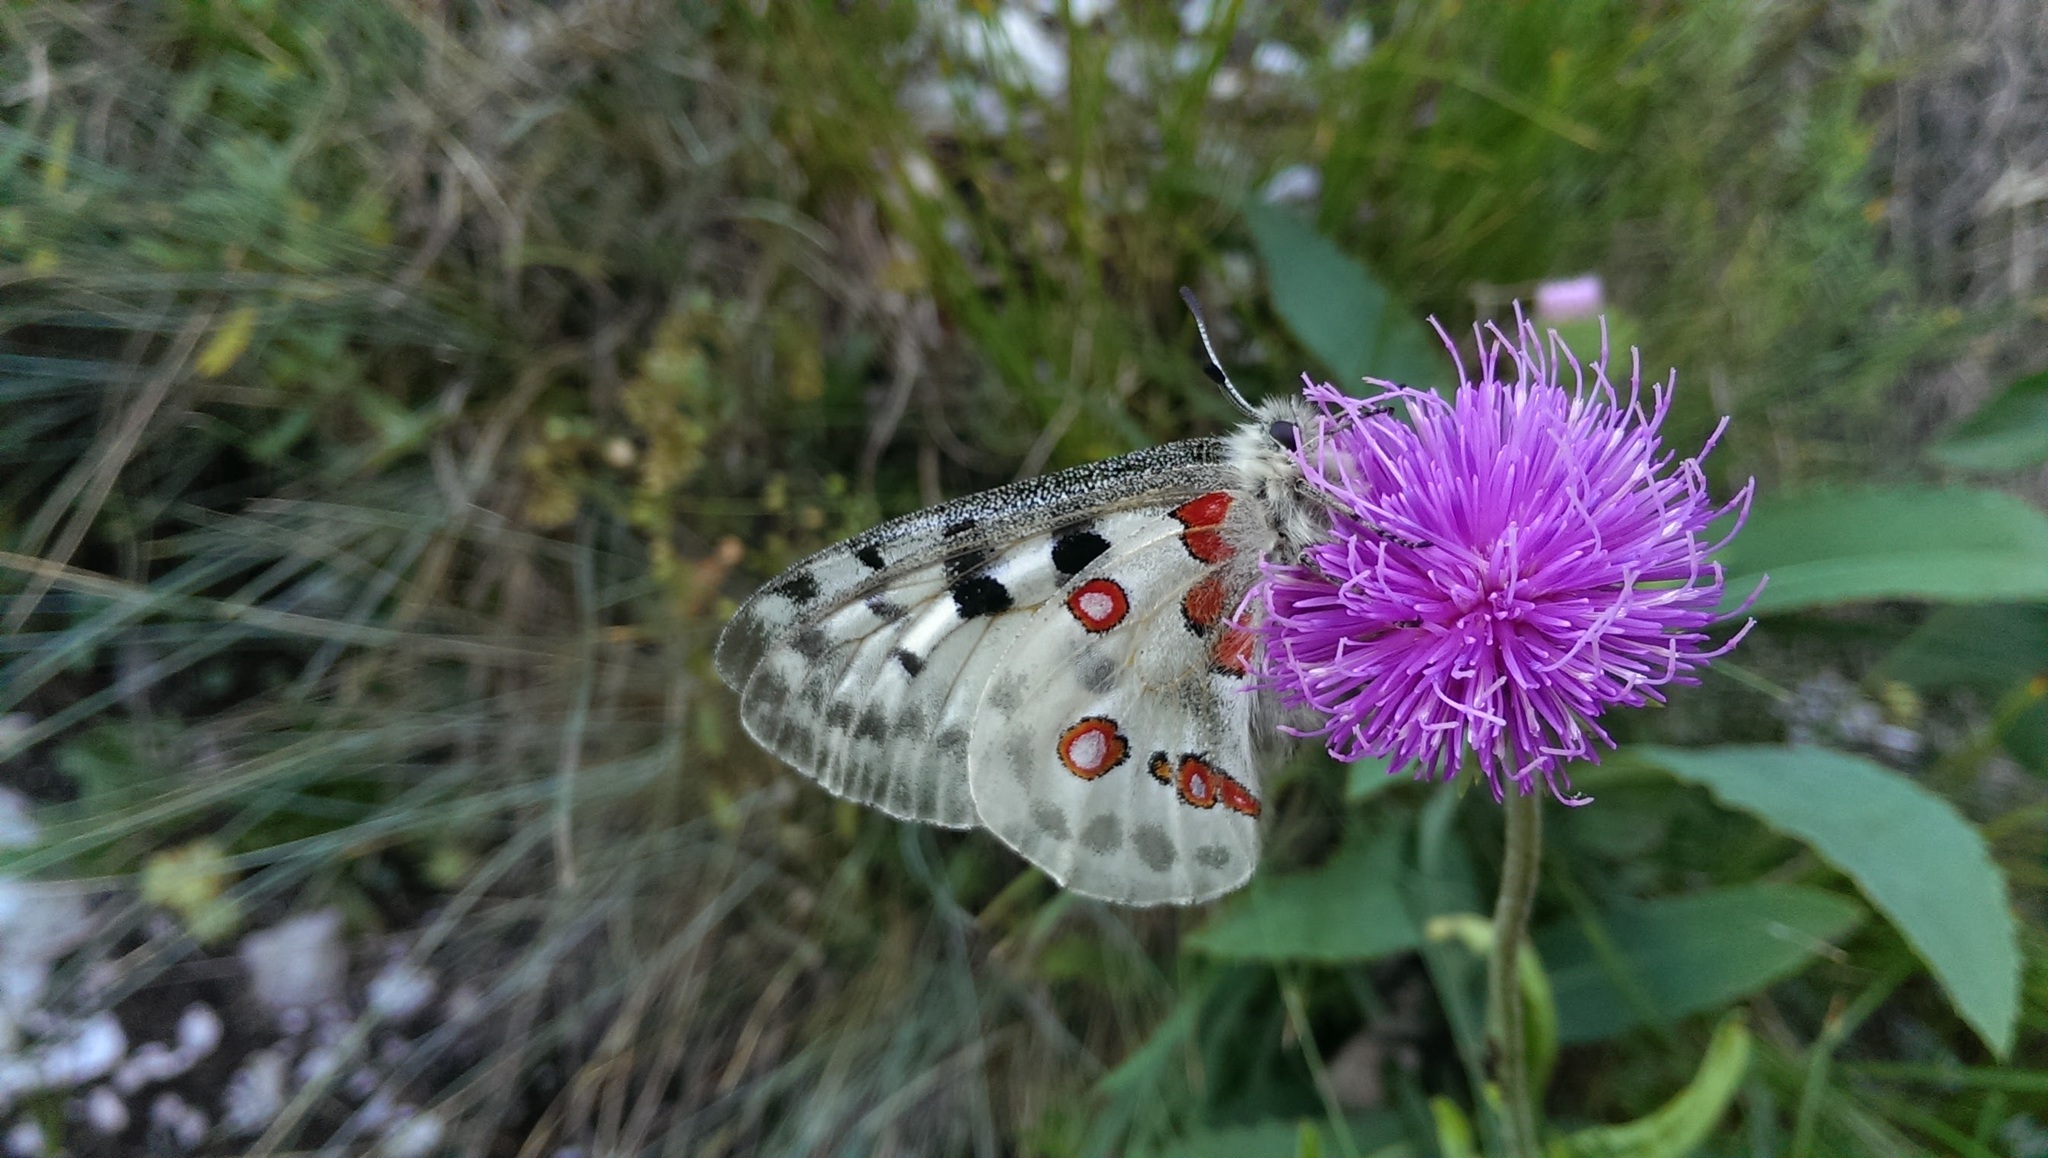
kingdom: Animalia
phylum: Arthropoda
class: Insecta
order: Lepidoptera
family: Papilionidae
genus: Parnassius
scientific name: Parnassius apollo
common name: Apollo
